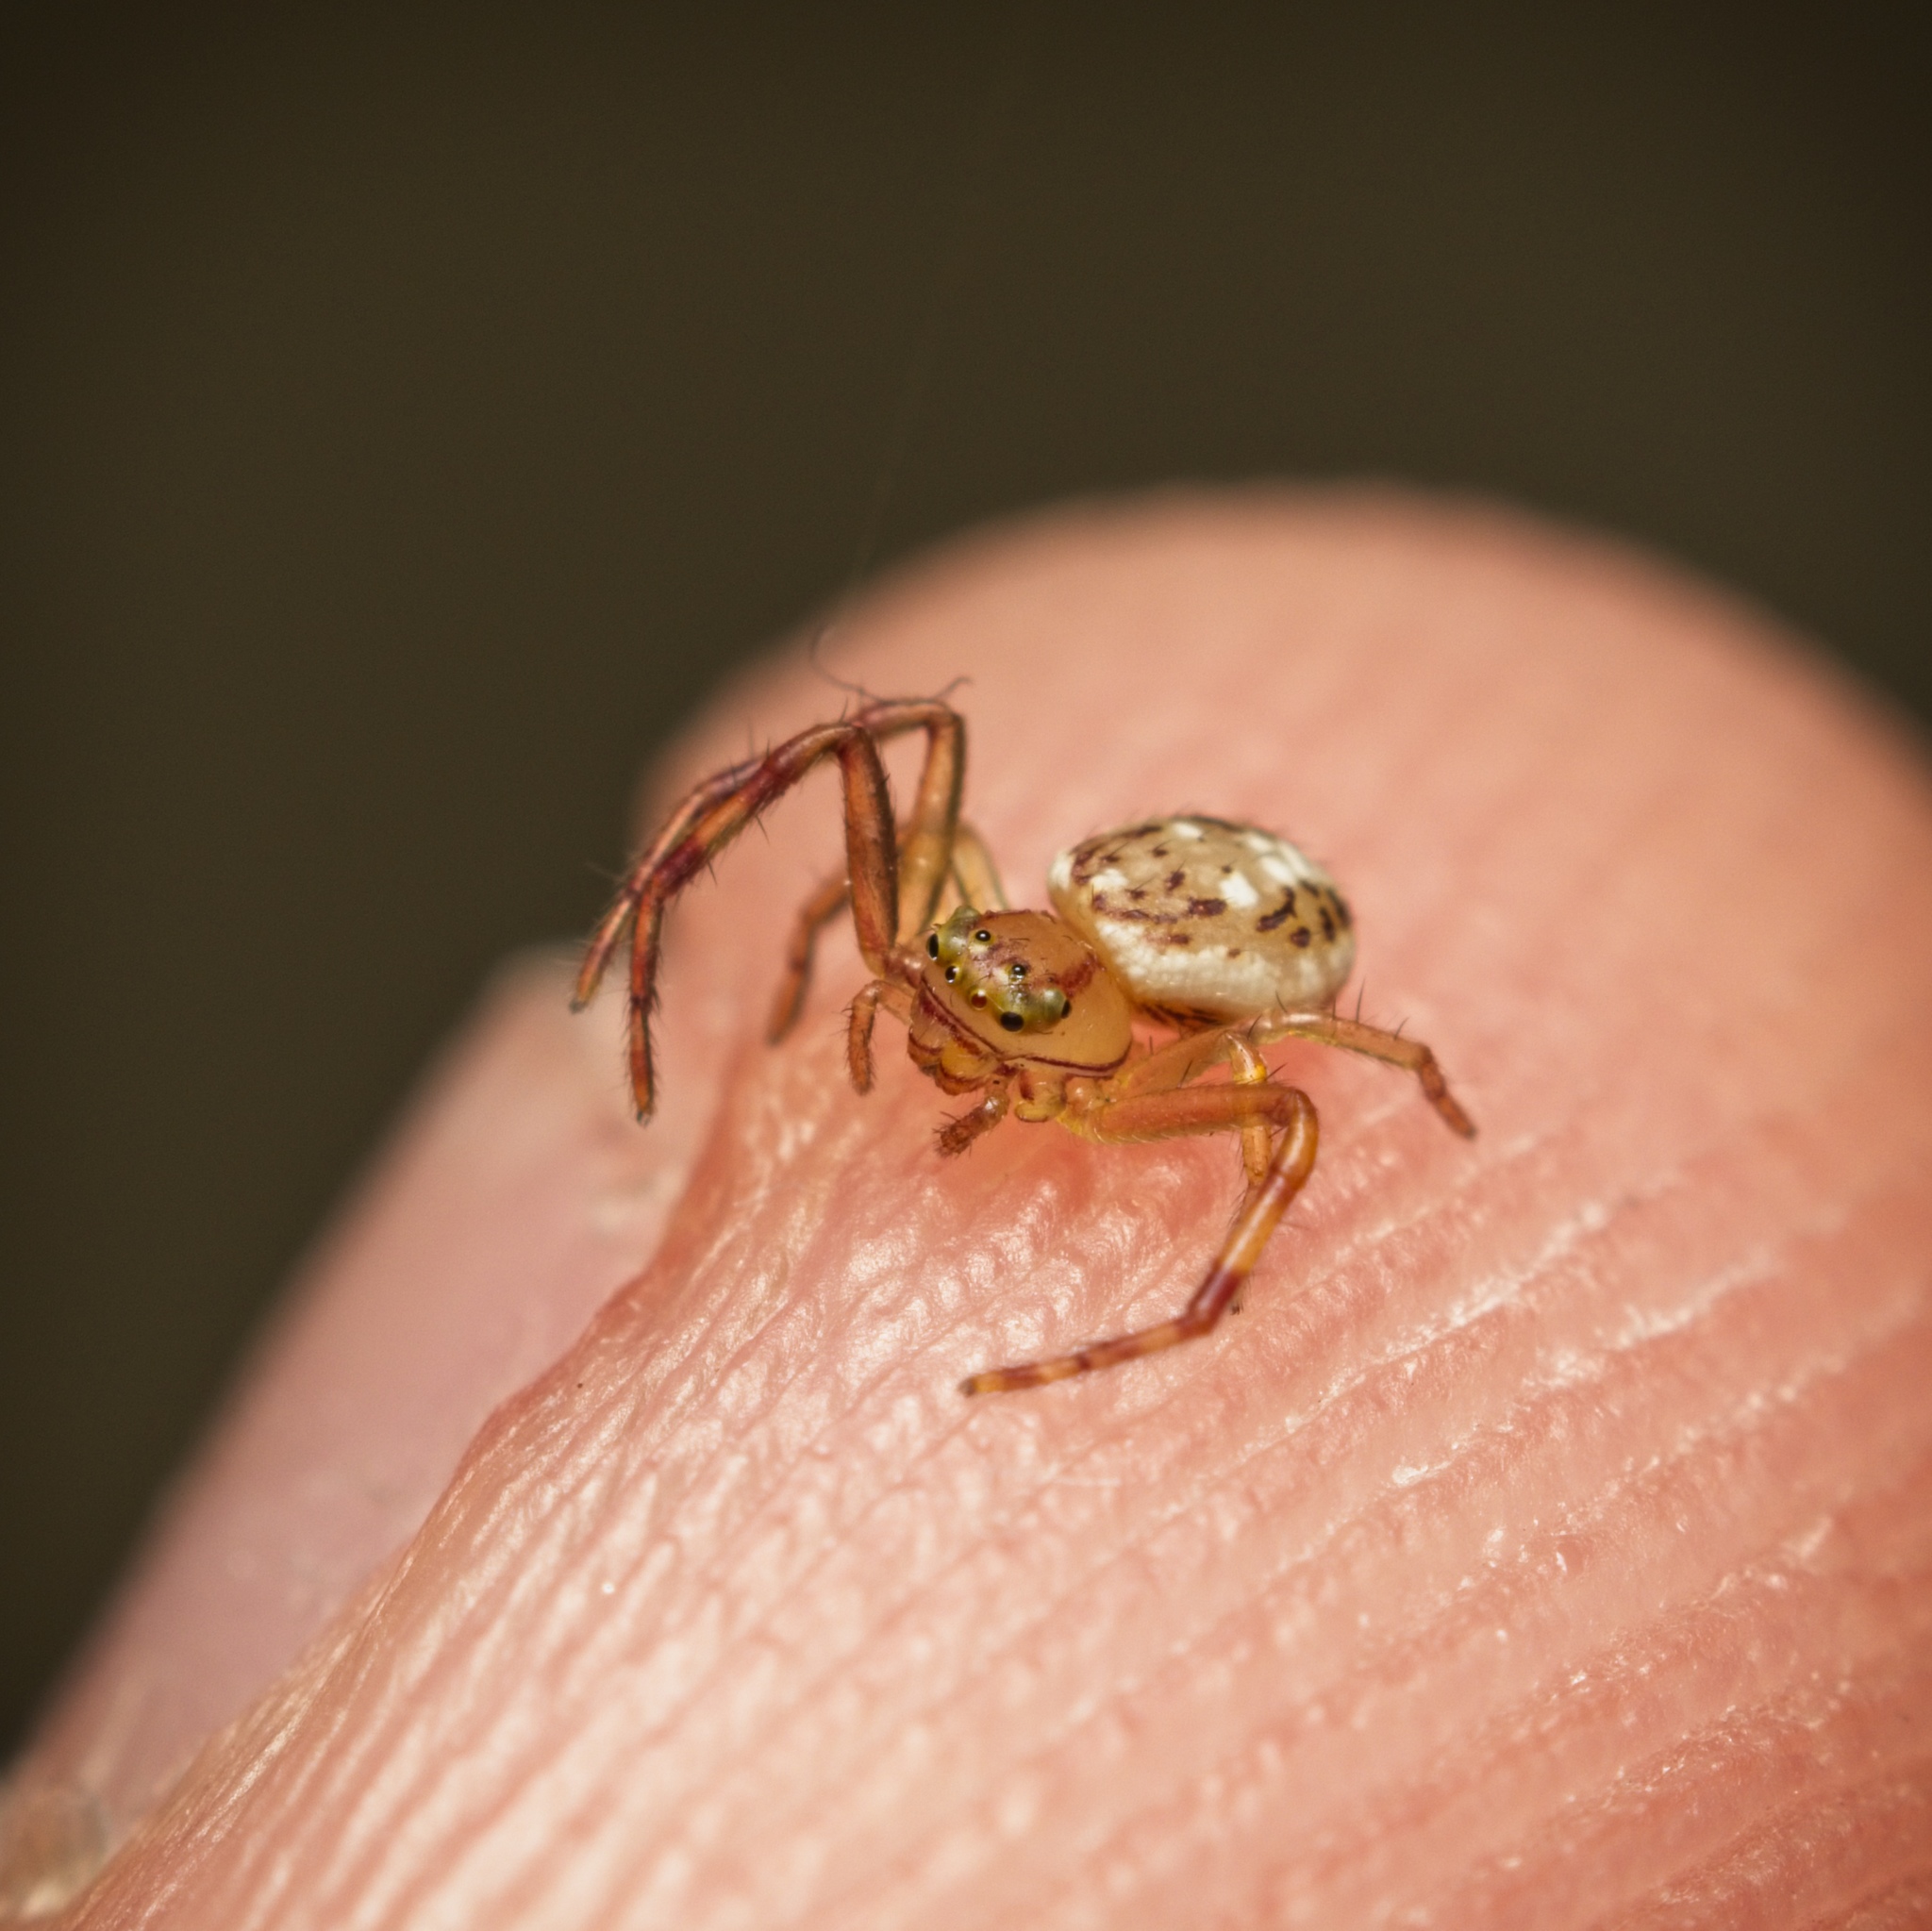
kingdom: Animalia
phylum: Arthropoda
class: Arachnida
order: Araneae
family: Thomisidae
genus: Diaea
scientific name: Diaea ambara
